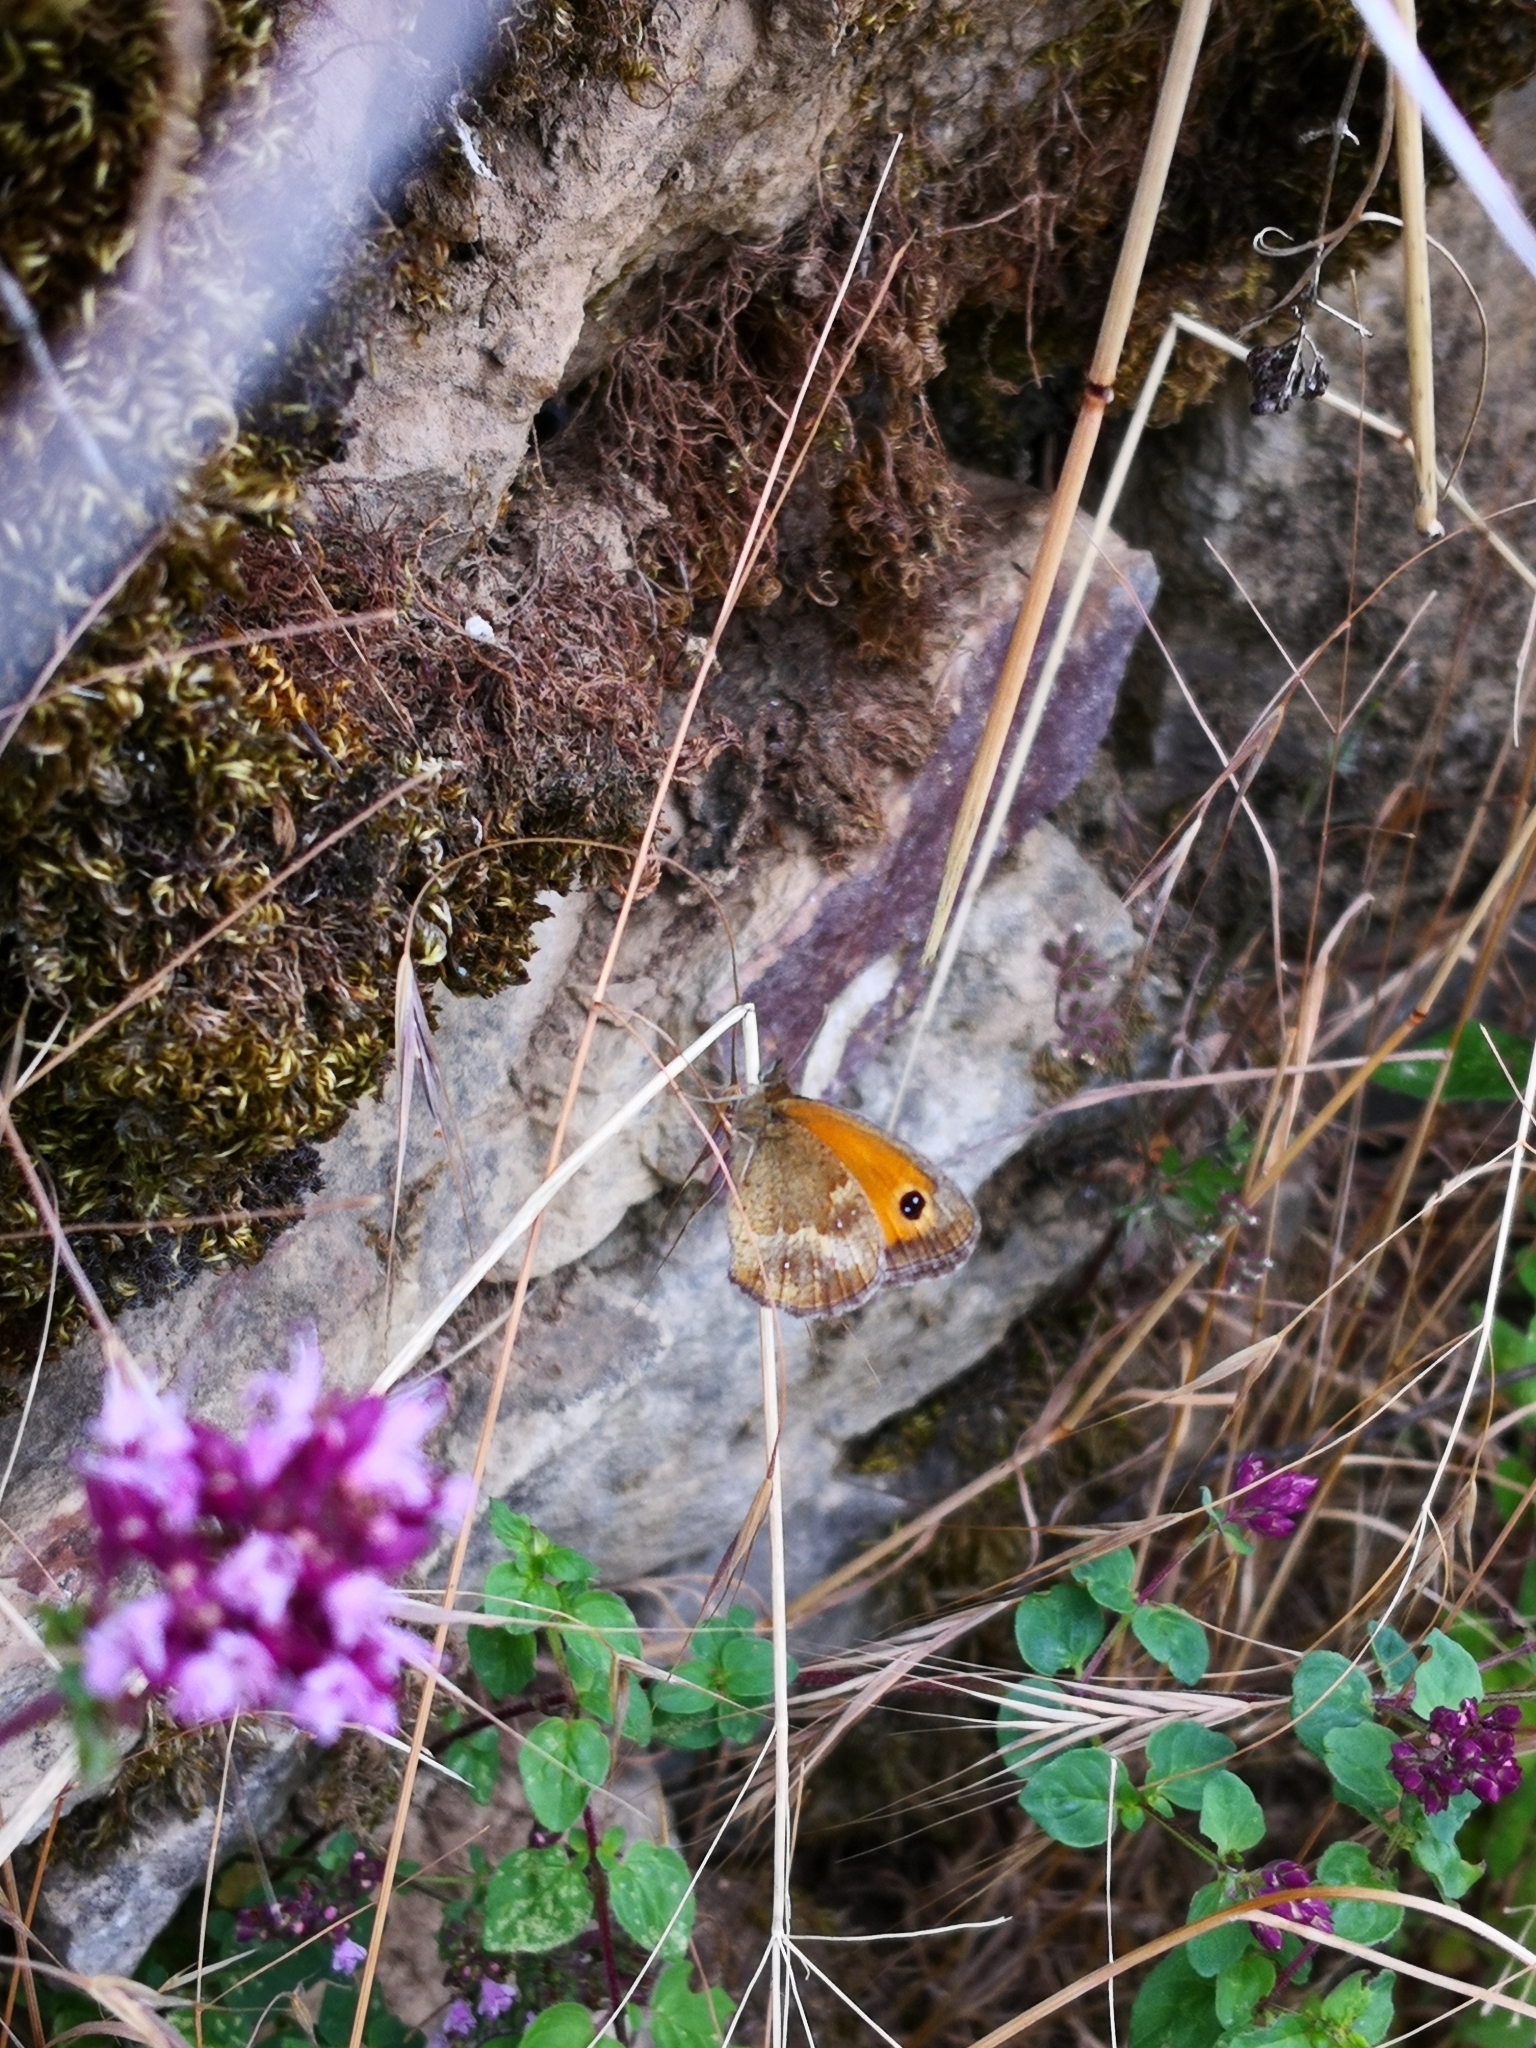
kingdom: Animalia
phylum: Arthropoda
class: Insecta
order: Lepidoptera
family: Nymphalidae
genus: Pyronia
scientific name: Pyronia tithonus
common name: Gatekeeper
